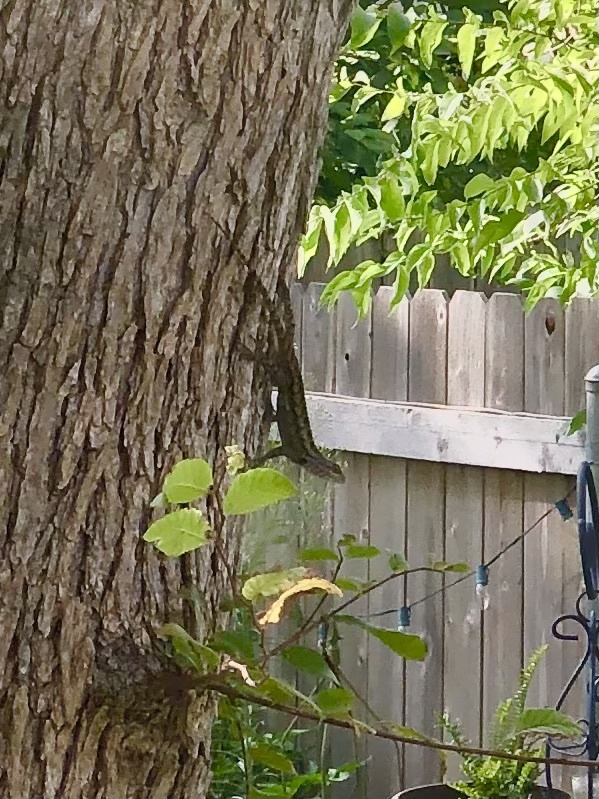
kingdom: Animalia
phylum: Chordata
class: Squamata
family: Phrynosomatidae
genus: Sceloporus
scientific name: Sceloporus olivaceus
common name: Texas spiny lizard
